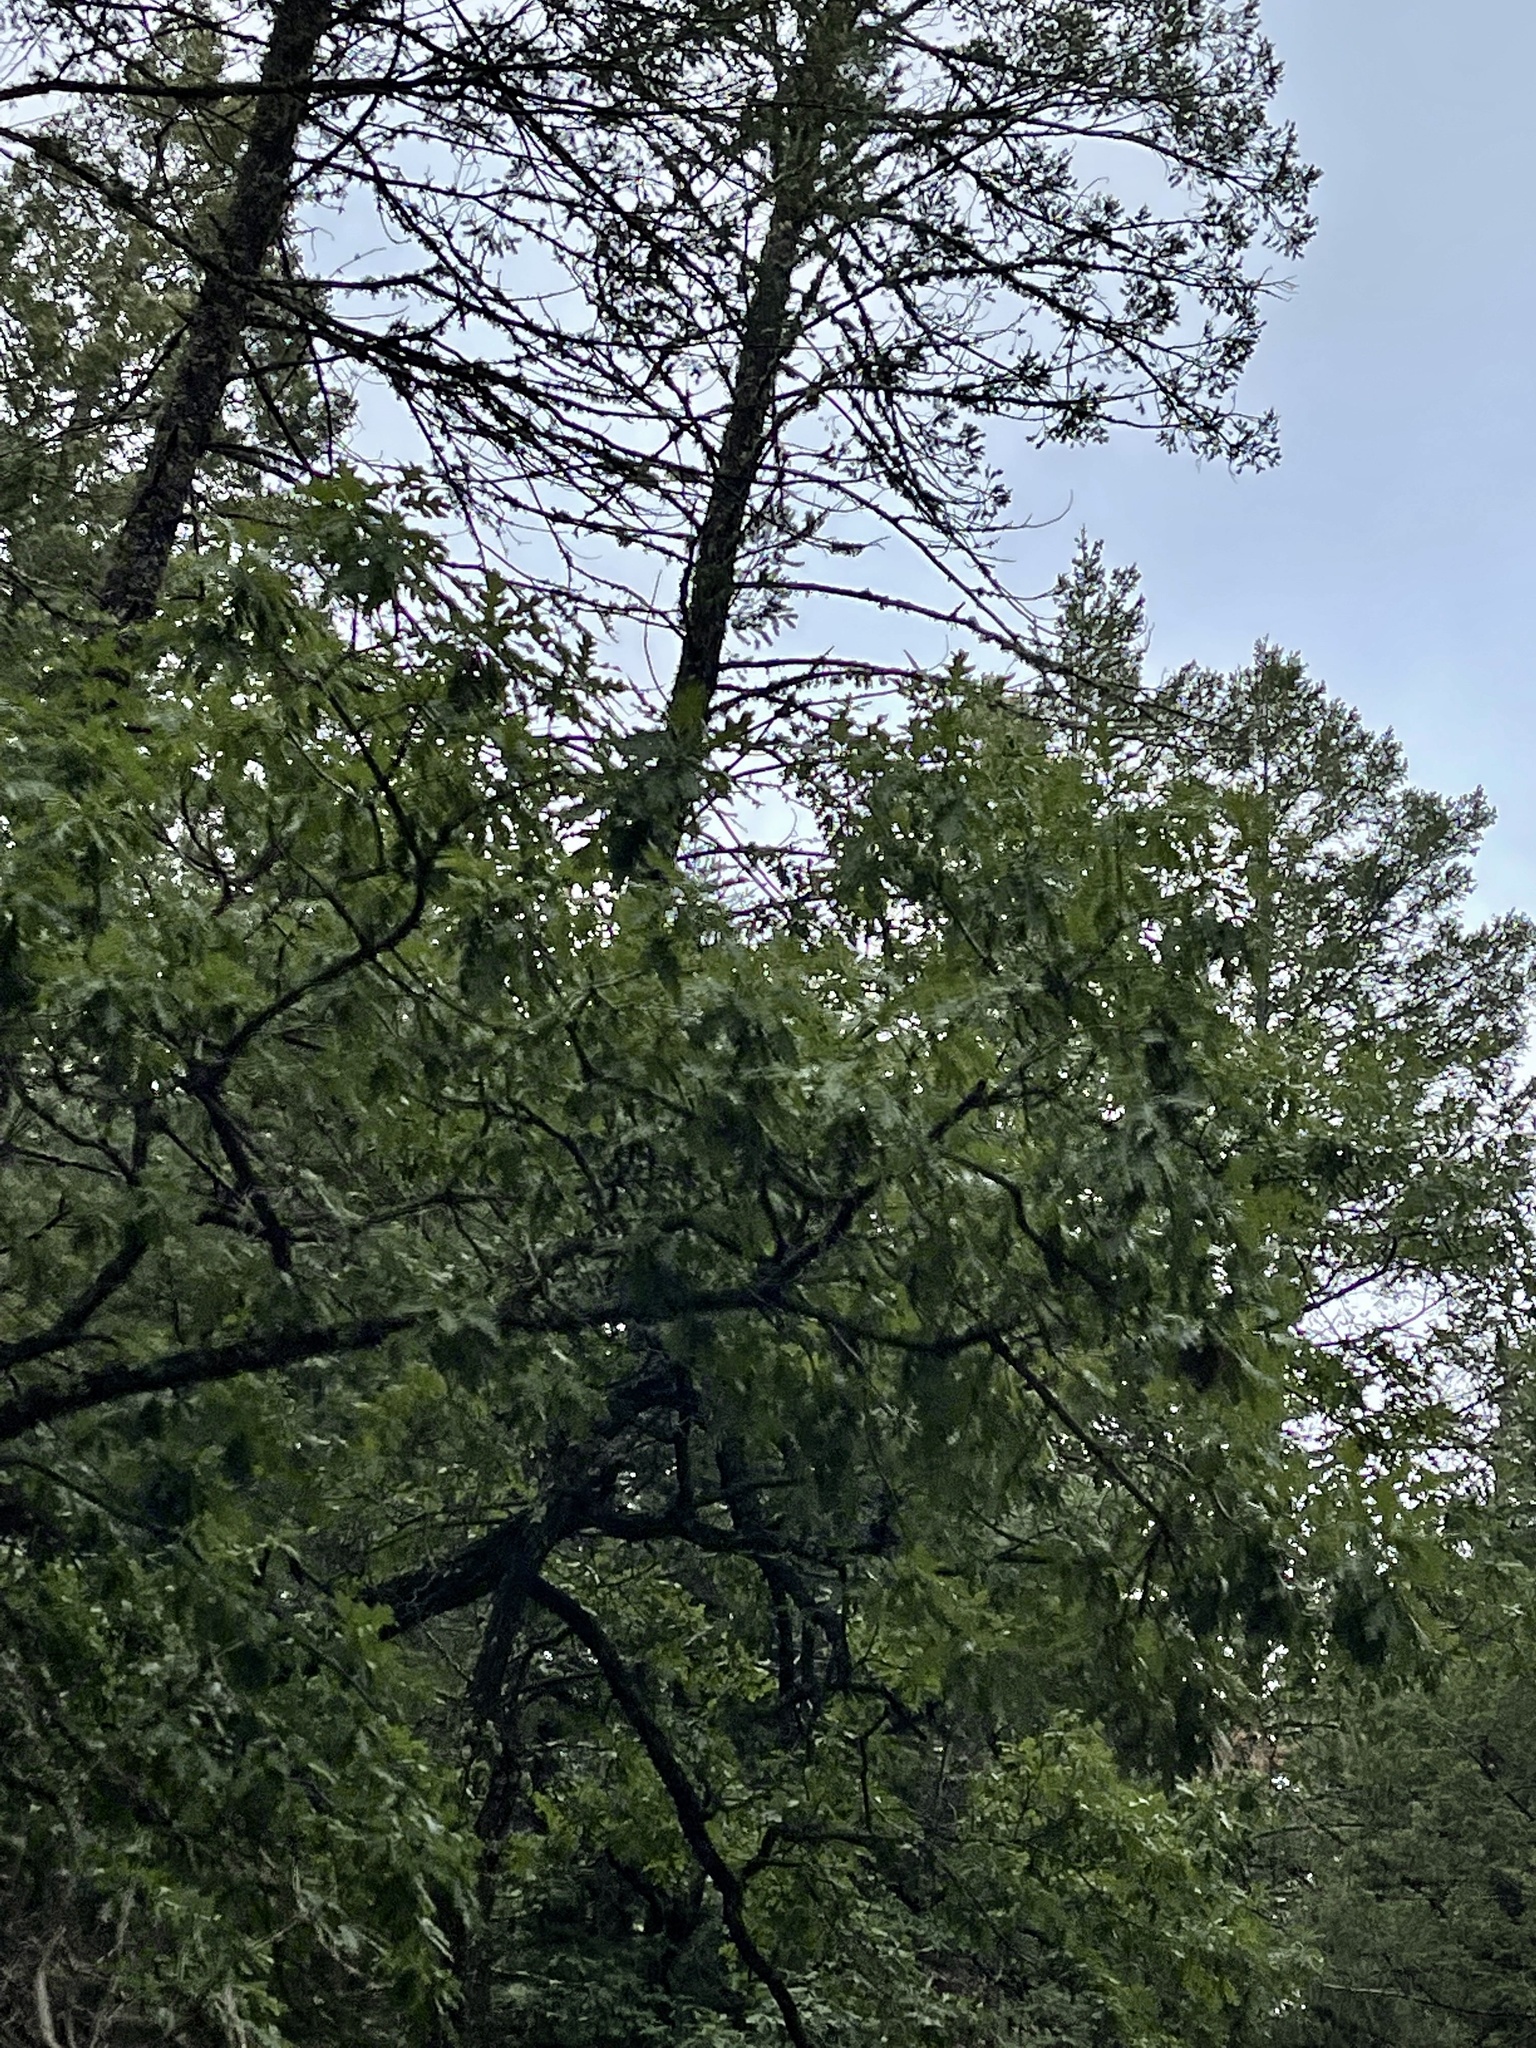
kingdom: Plantae
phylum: Tracheophyta
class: Magnoliopsida
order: Fagales
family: Fagaceae
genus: Quercus
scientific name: Quercus gambelii
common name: Gambel oak
